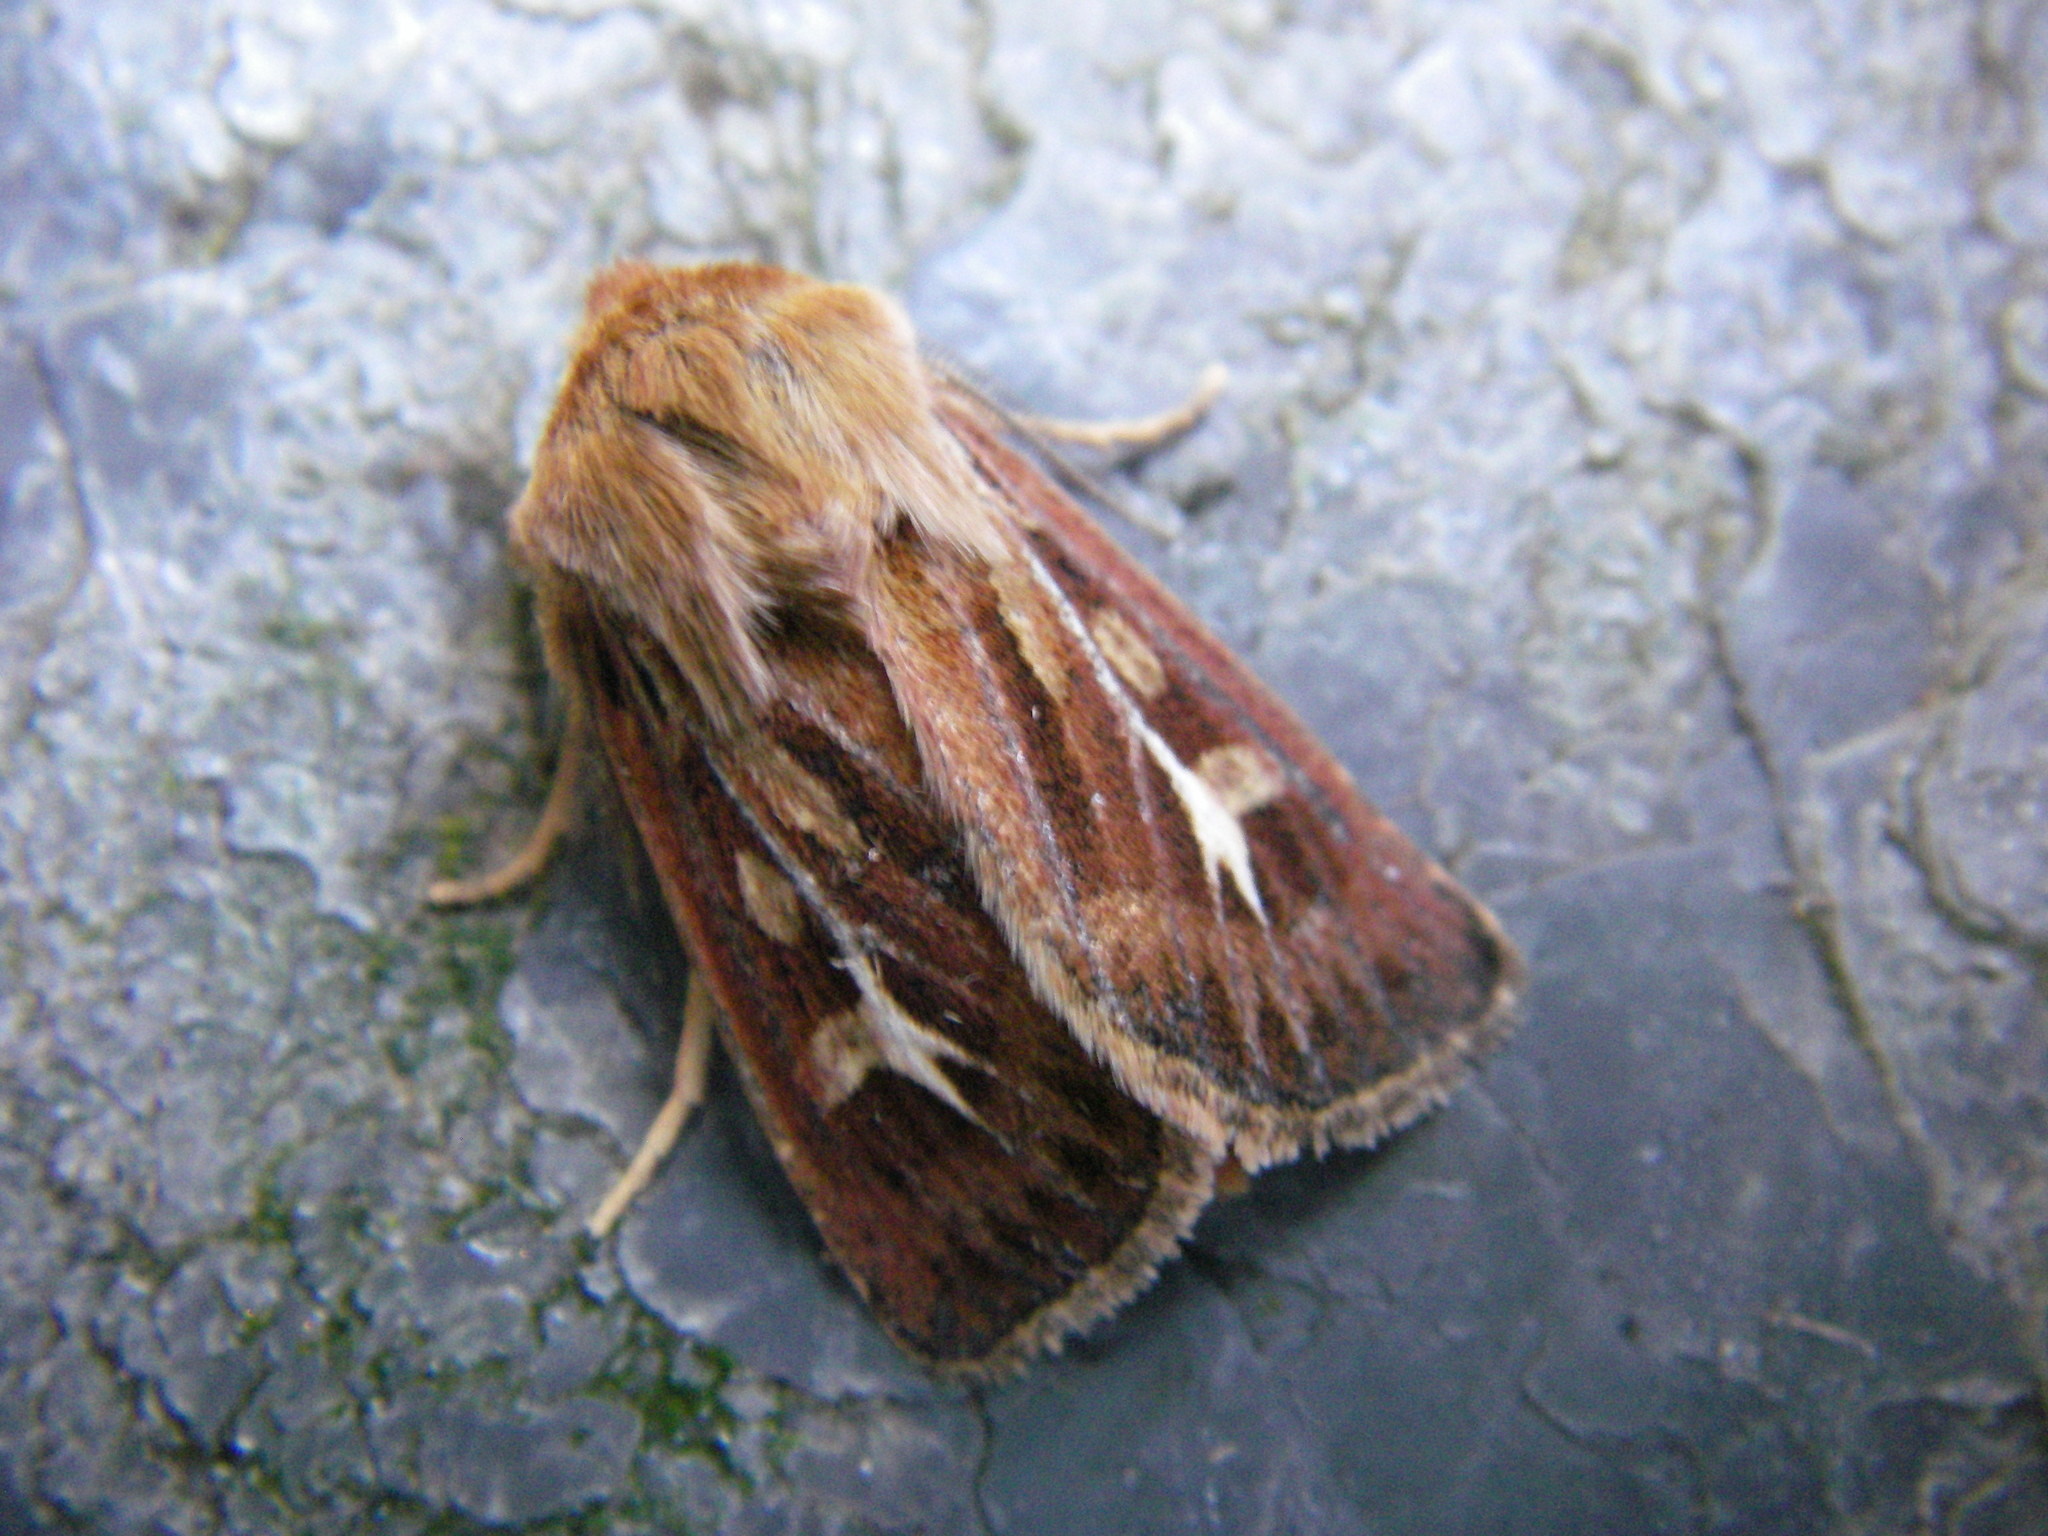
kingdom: Animalia
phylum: Arthropoda
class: Insecta
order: Lepidoptera
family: Noctuidae
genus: Cerapteryx
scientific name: Cerapteryx graminis
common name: Antler moth
